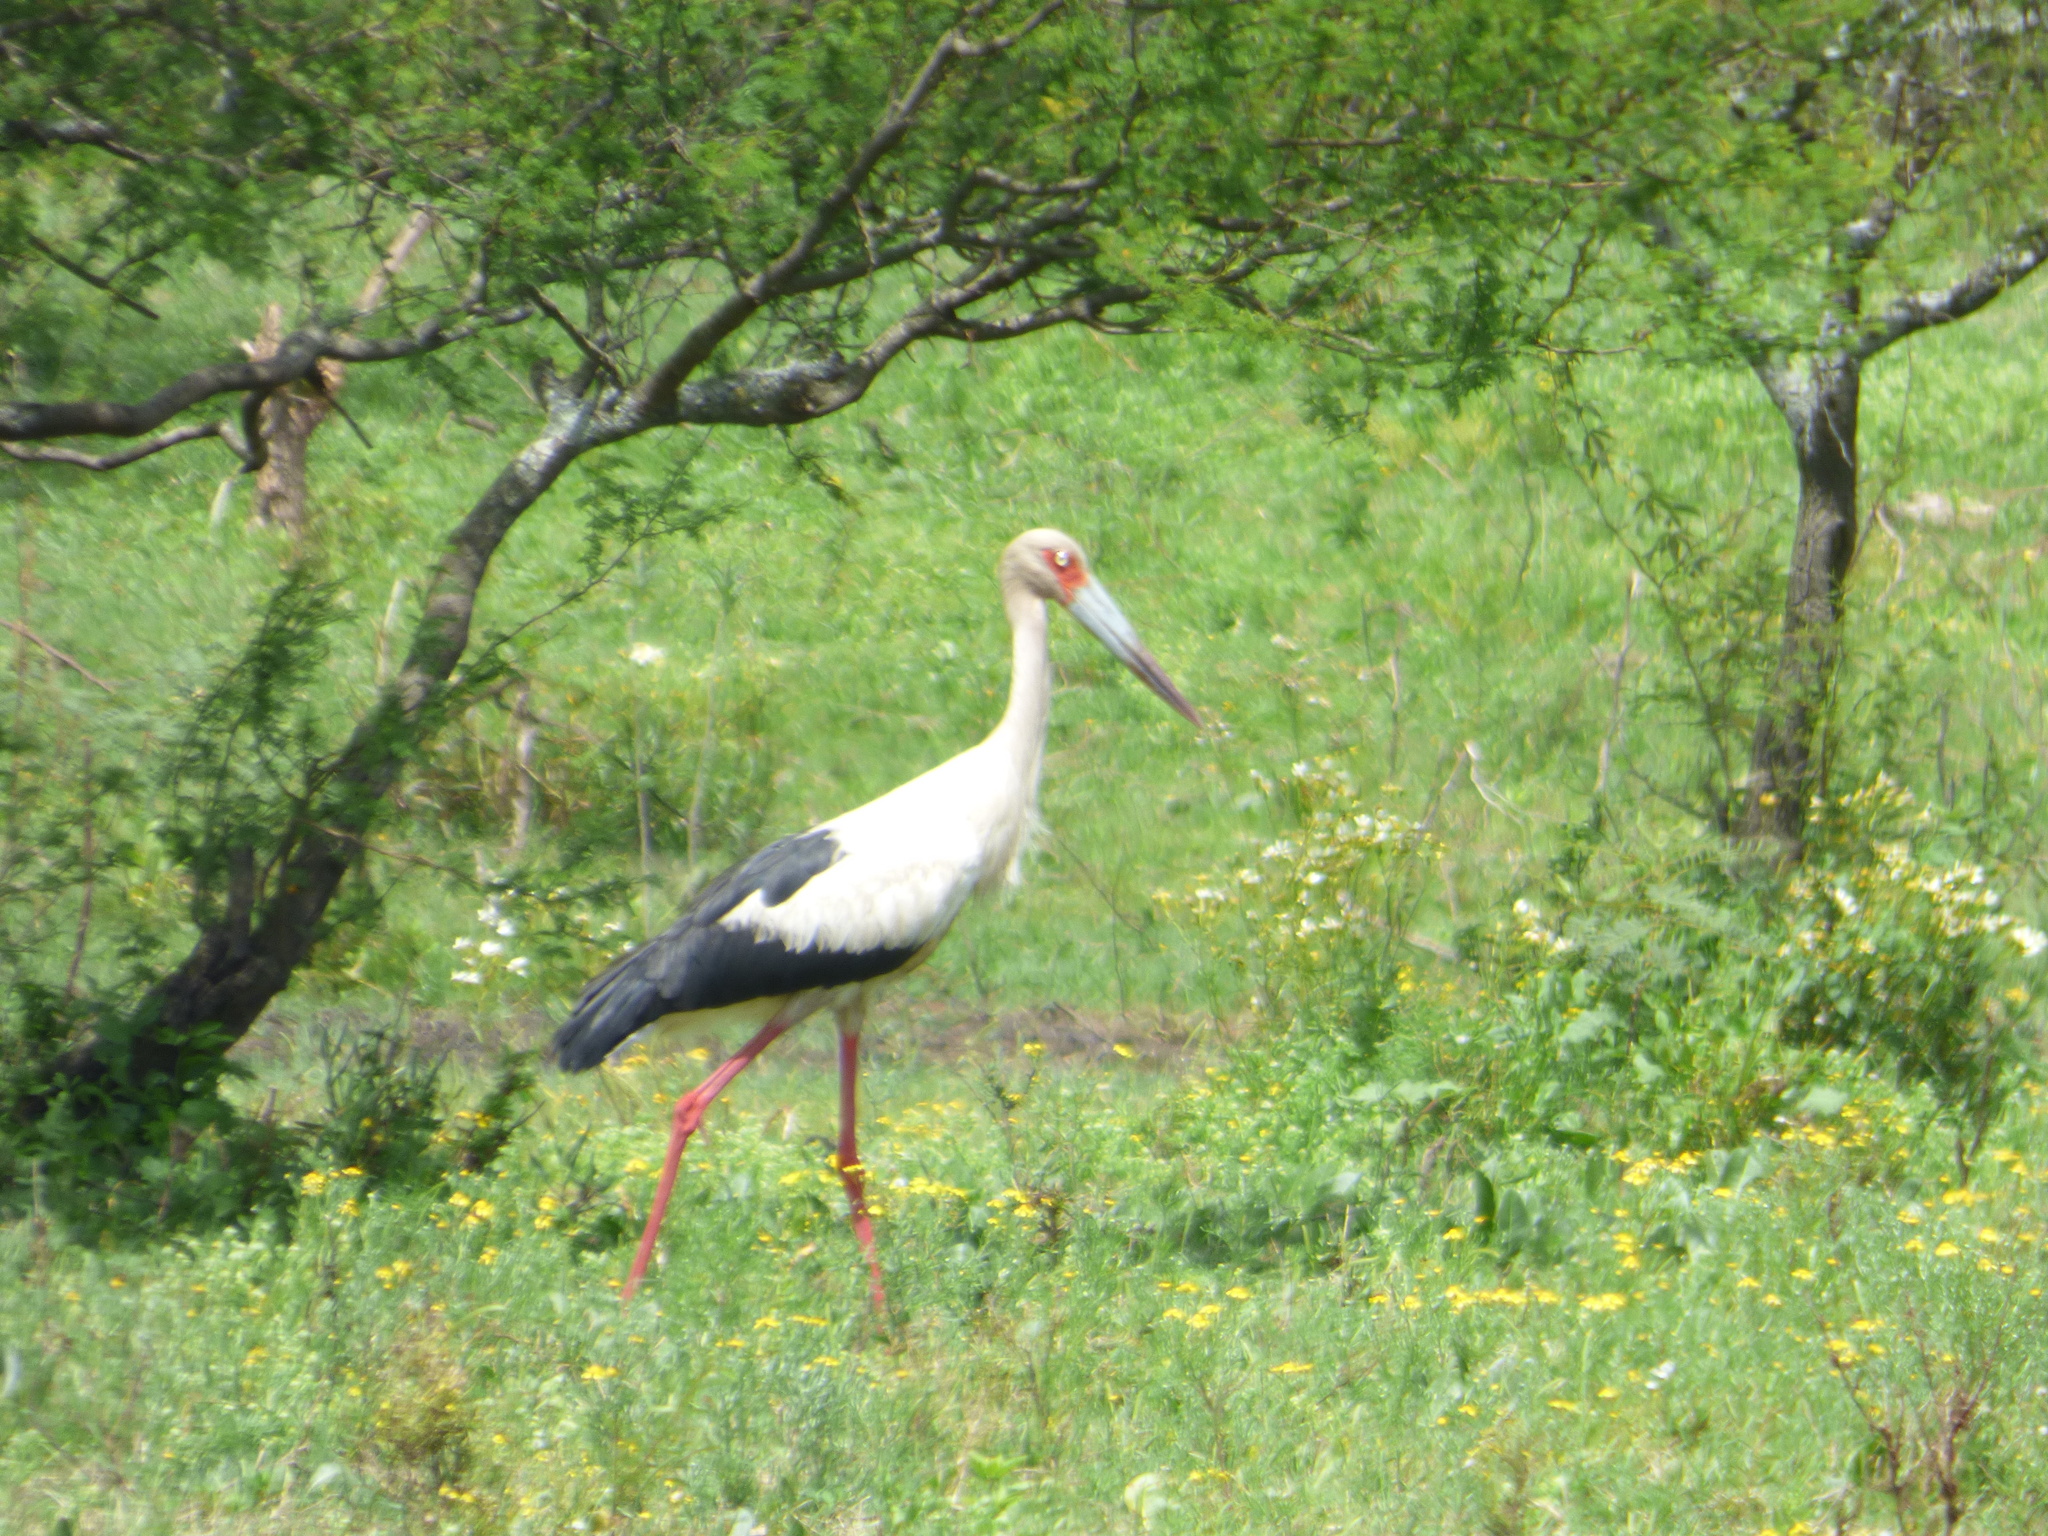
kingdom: Animalia
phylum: Chordata
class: Aves
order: Ciconiiformes
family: Ciconiidae
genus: Ciconia
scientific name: Ciconia maguari
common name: Maguari stork
